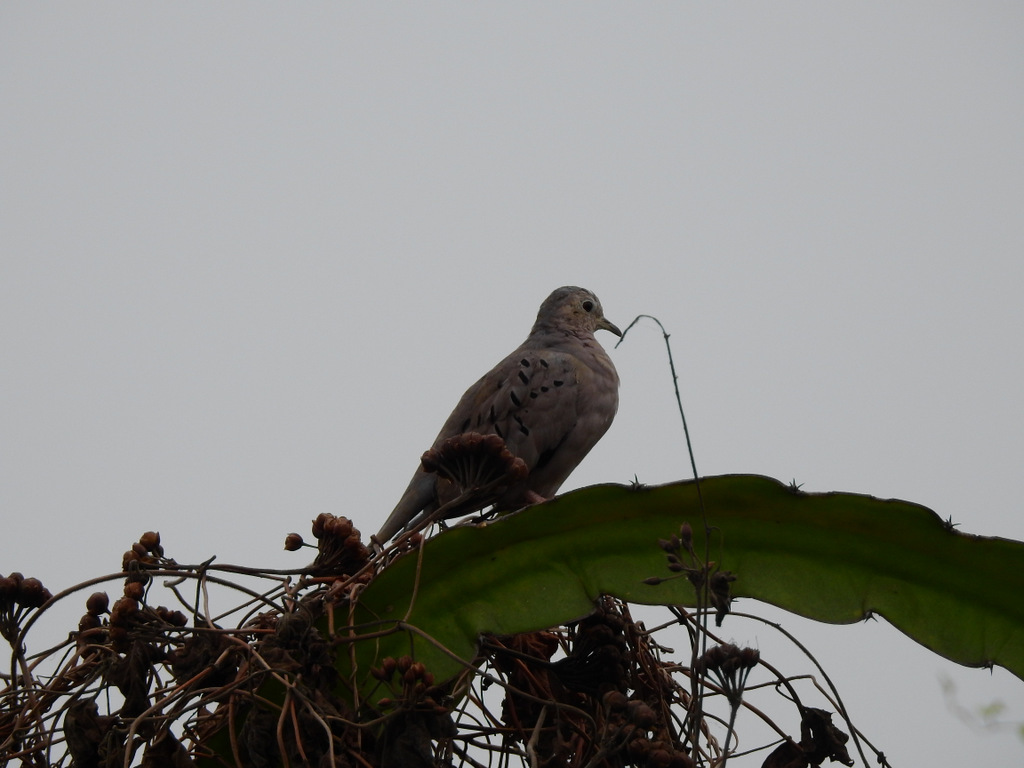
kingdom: Animalia
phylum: Chordata
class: Aves
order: Columbiformes
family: Columbidae
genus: Columbina
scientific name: Columbina buckleyi
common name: Ecuadorian ground dove
